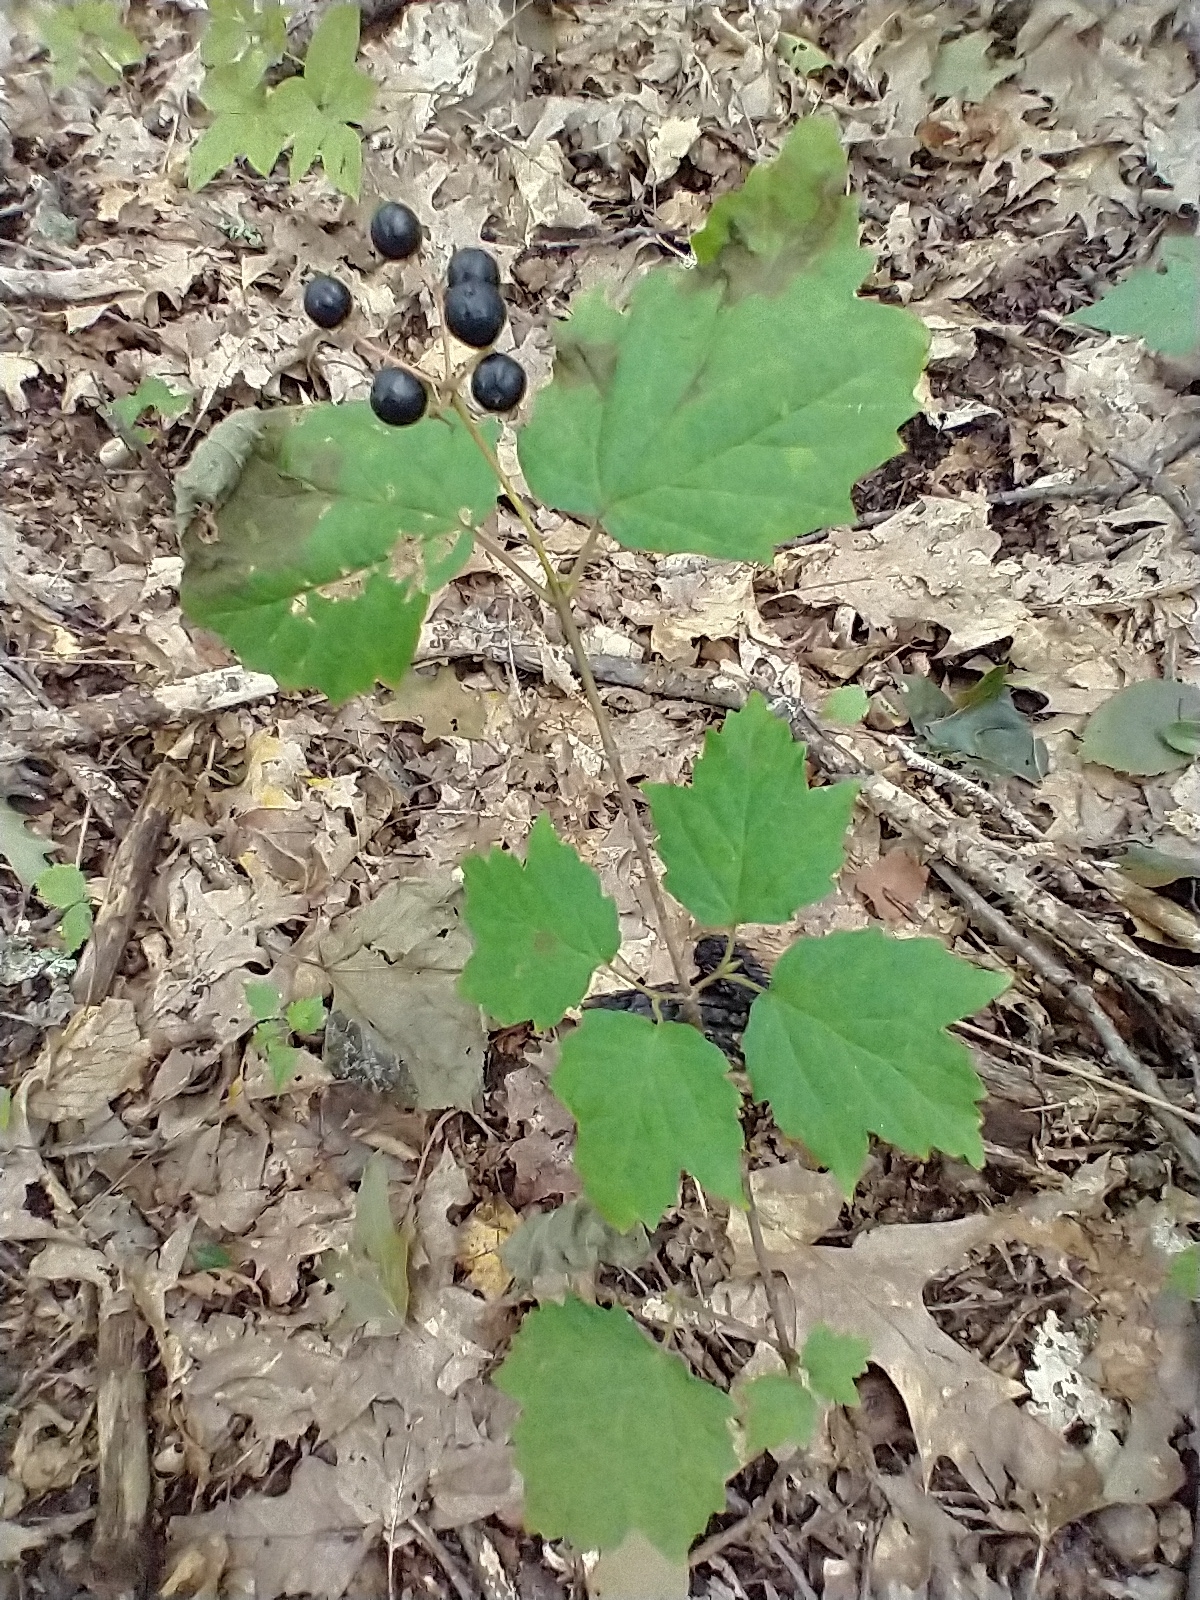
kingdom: Plantae
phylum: Tracheophyta
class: Magnoliopsida
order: Dipsacales
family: Viburnaceae
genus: Viburnum
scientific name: Viburnum acerifolium
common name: Dockmackie
